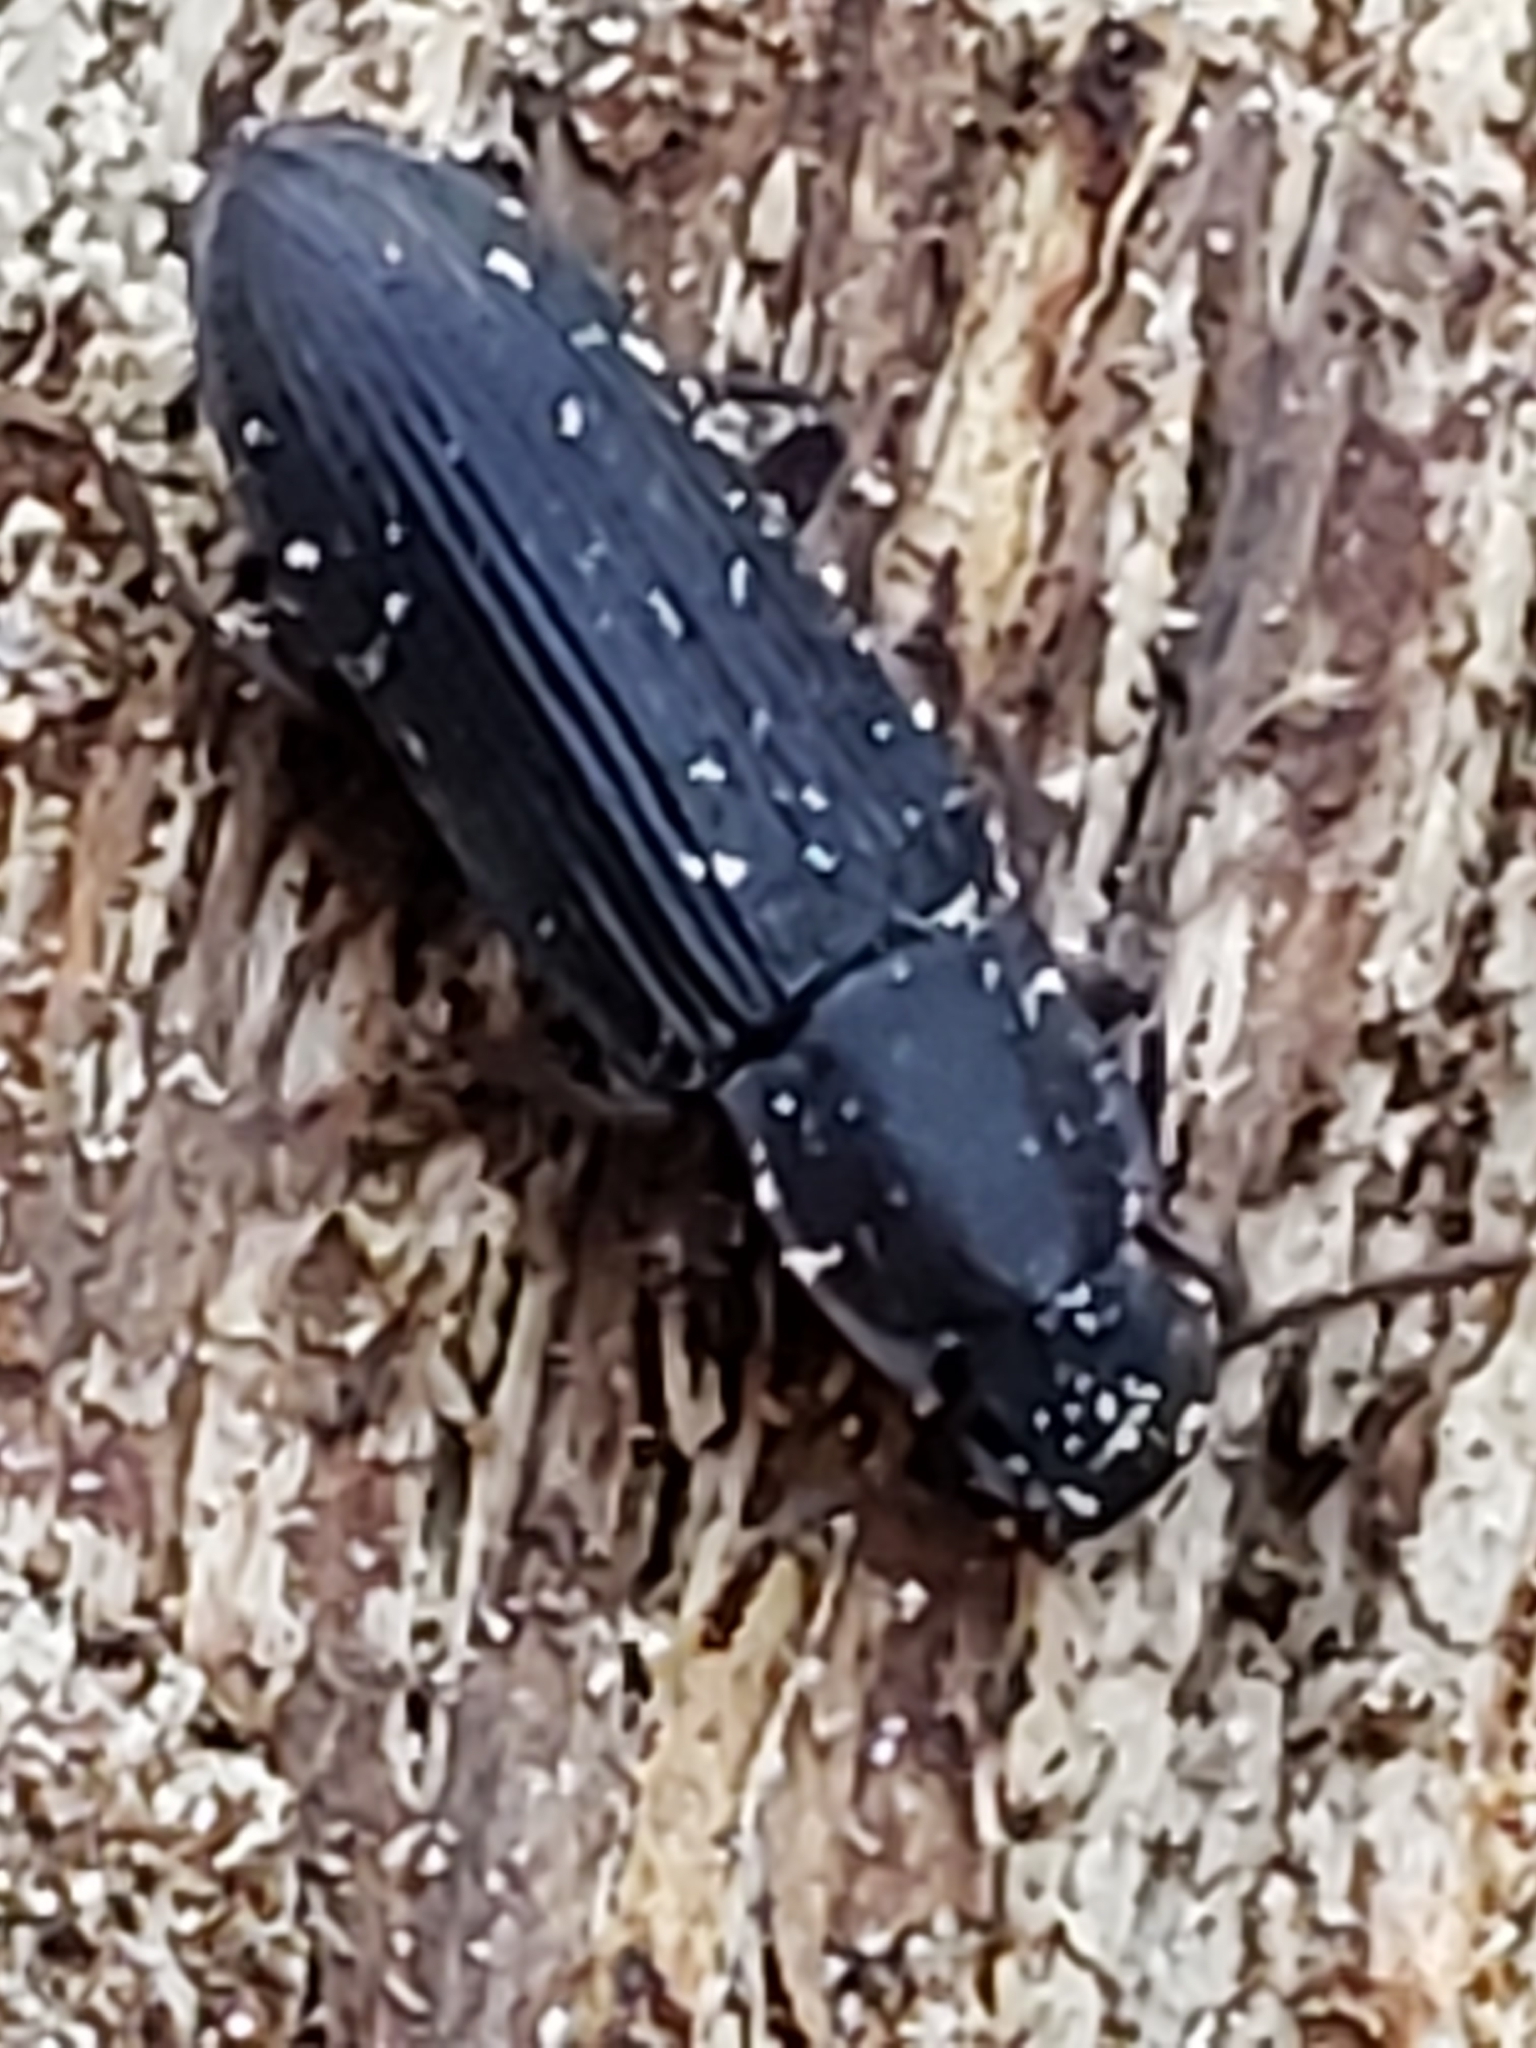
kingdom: Animalia
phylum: Arthropoda
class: Insecta
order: Coleoptera
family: Tenebrionidae
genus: Idiobates
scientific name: Idiobates castaneus
